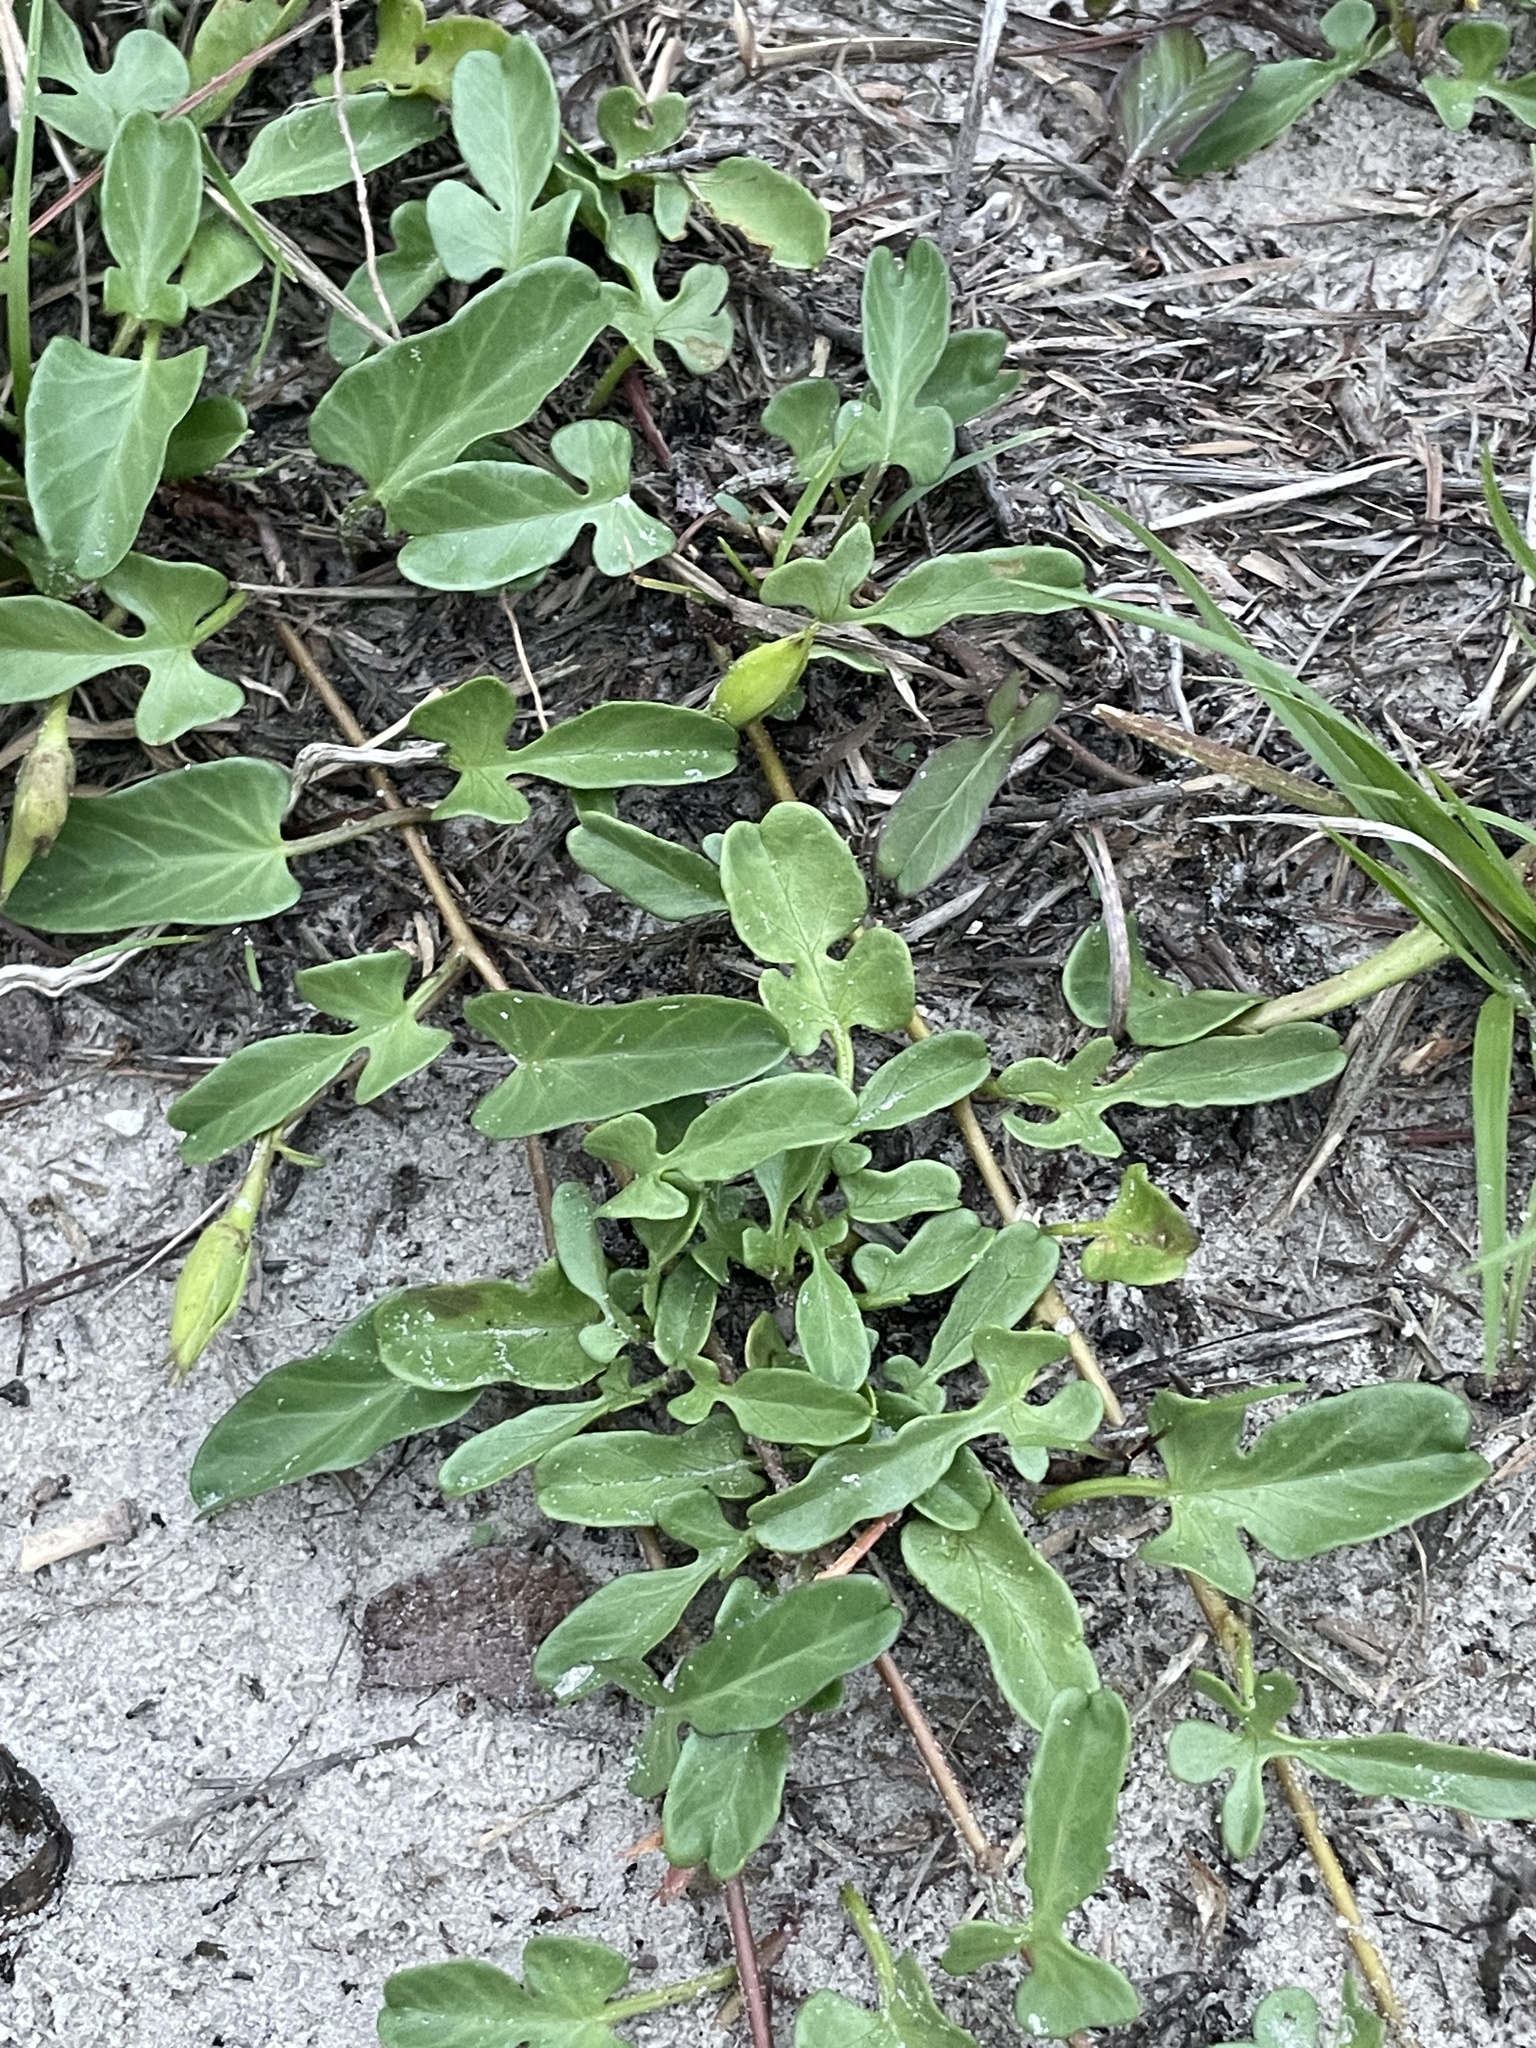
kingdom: Plantae
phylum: Tracheophyta
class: Magnoliopsida
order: Solanales
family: Convolvulaceae
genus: Ipomoea
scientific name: Ipomoea imperati
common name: Fiddle-leaf morning-glory
